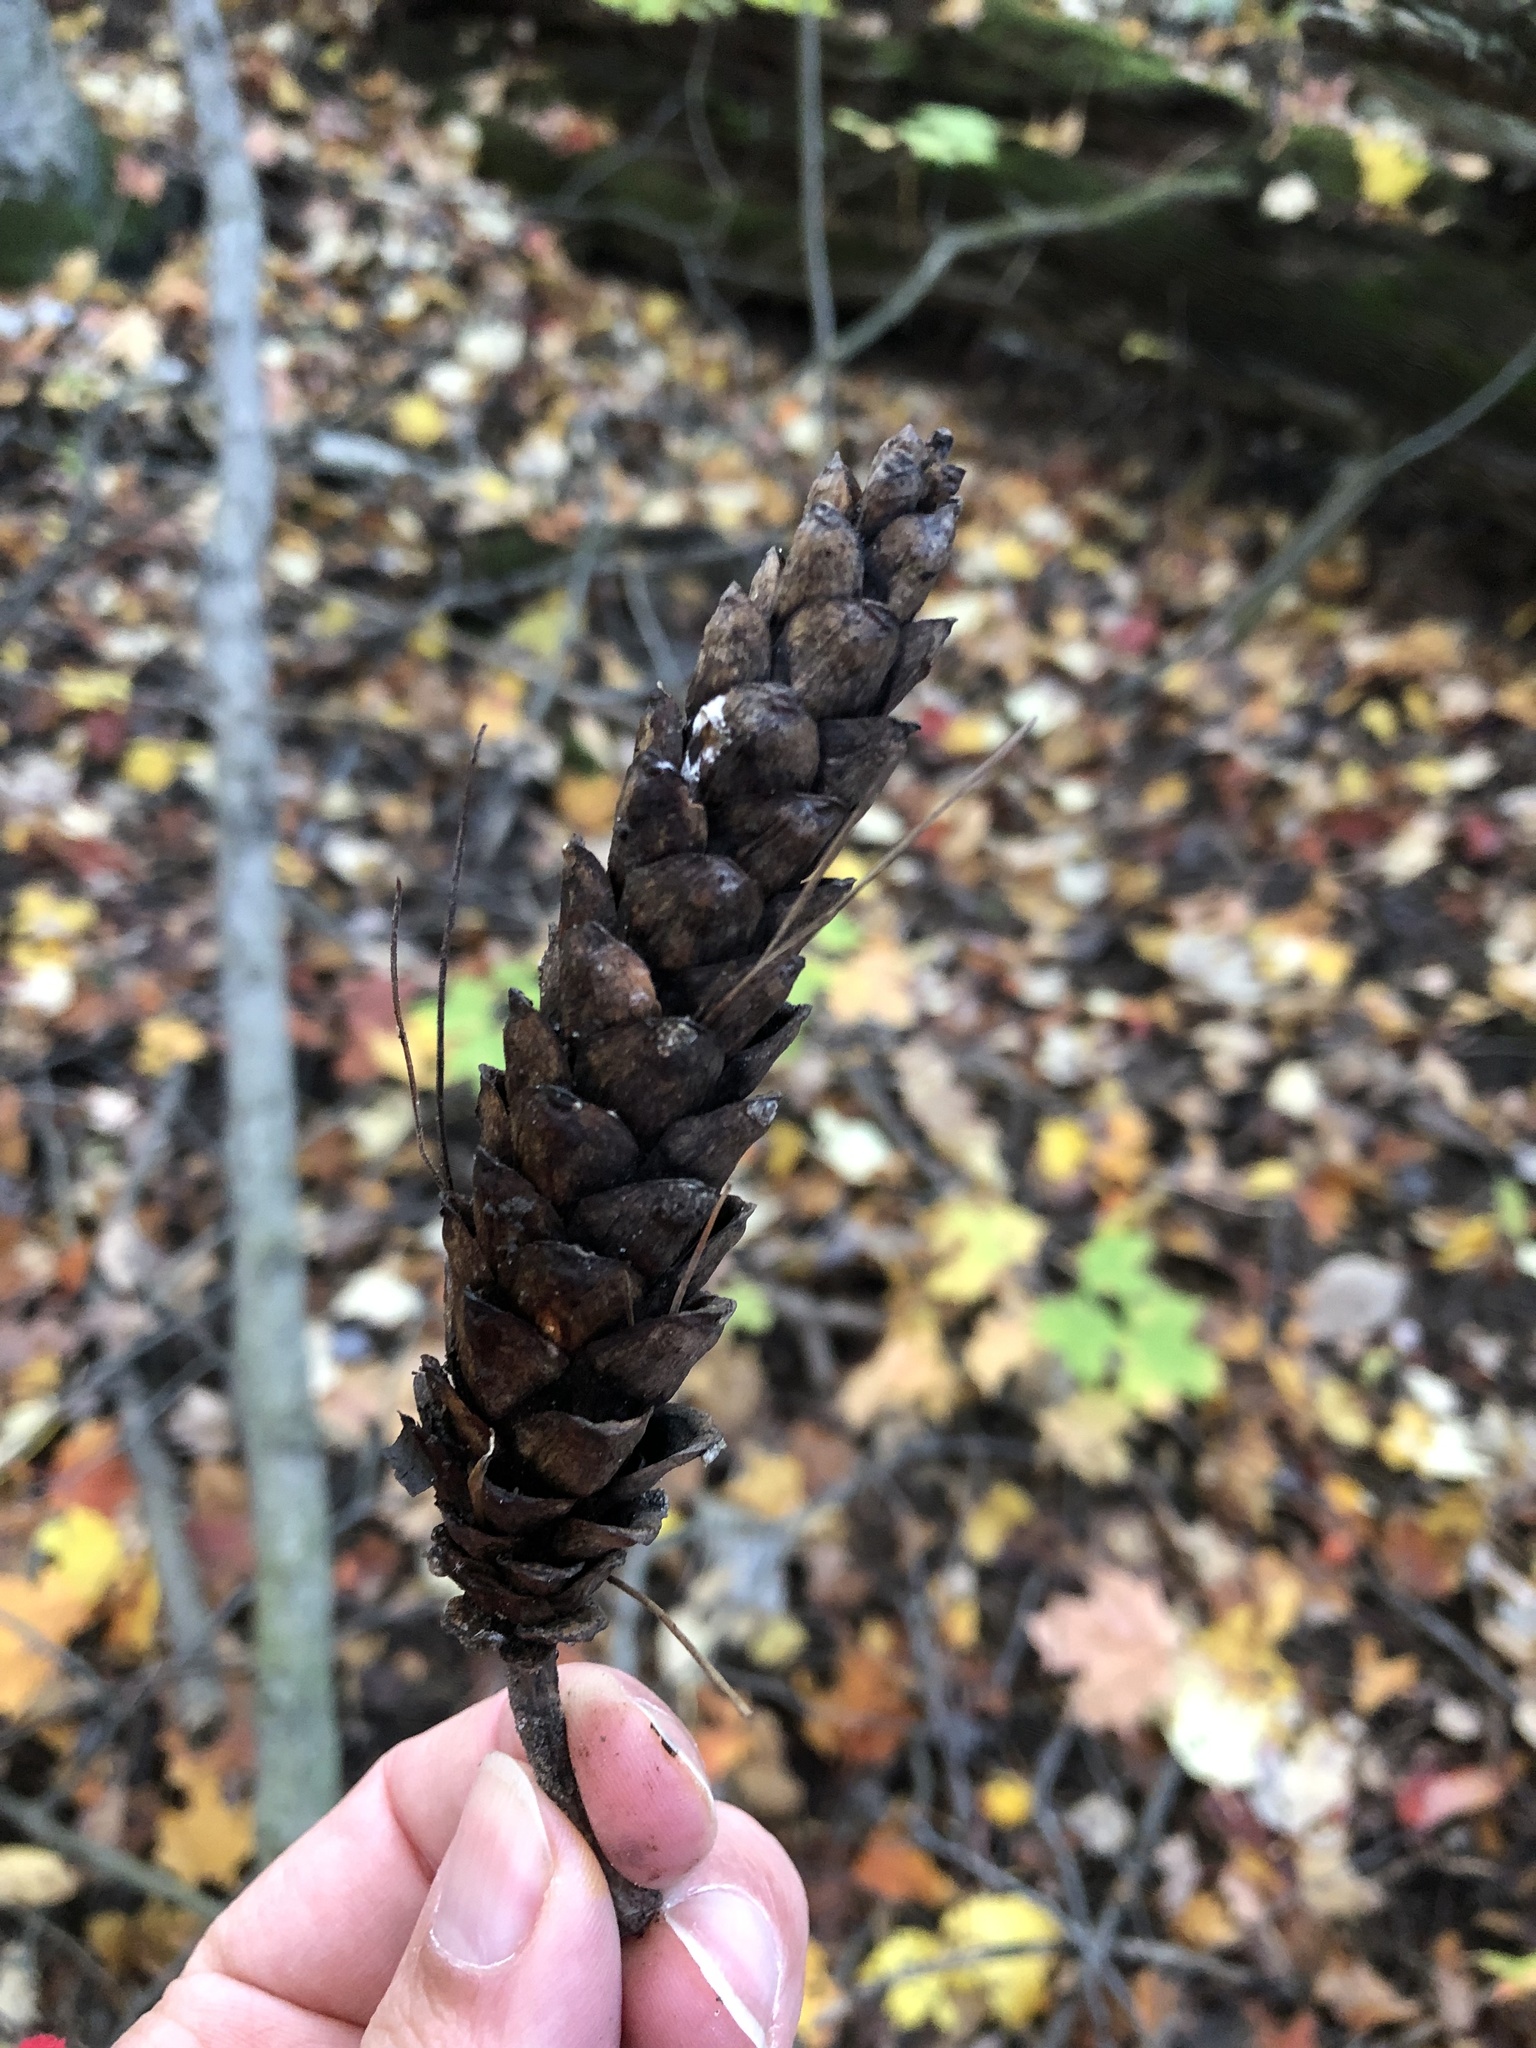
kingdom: Plantae
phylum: Tracheophyta
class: Pinopsida
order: Pinales
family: Pinaceae
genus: Pinus
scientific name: Pinus strobus
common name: Weymouth pine
